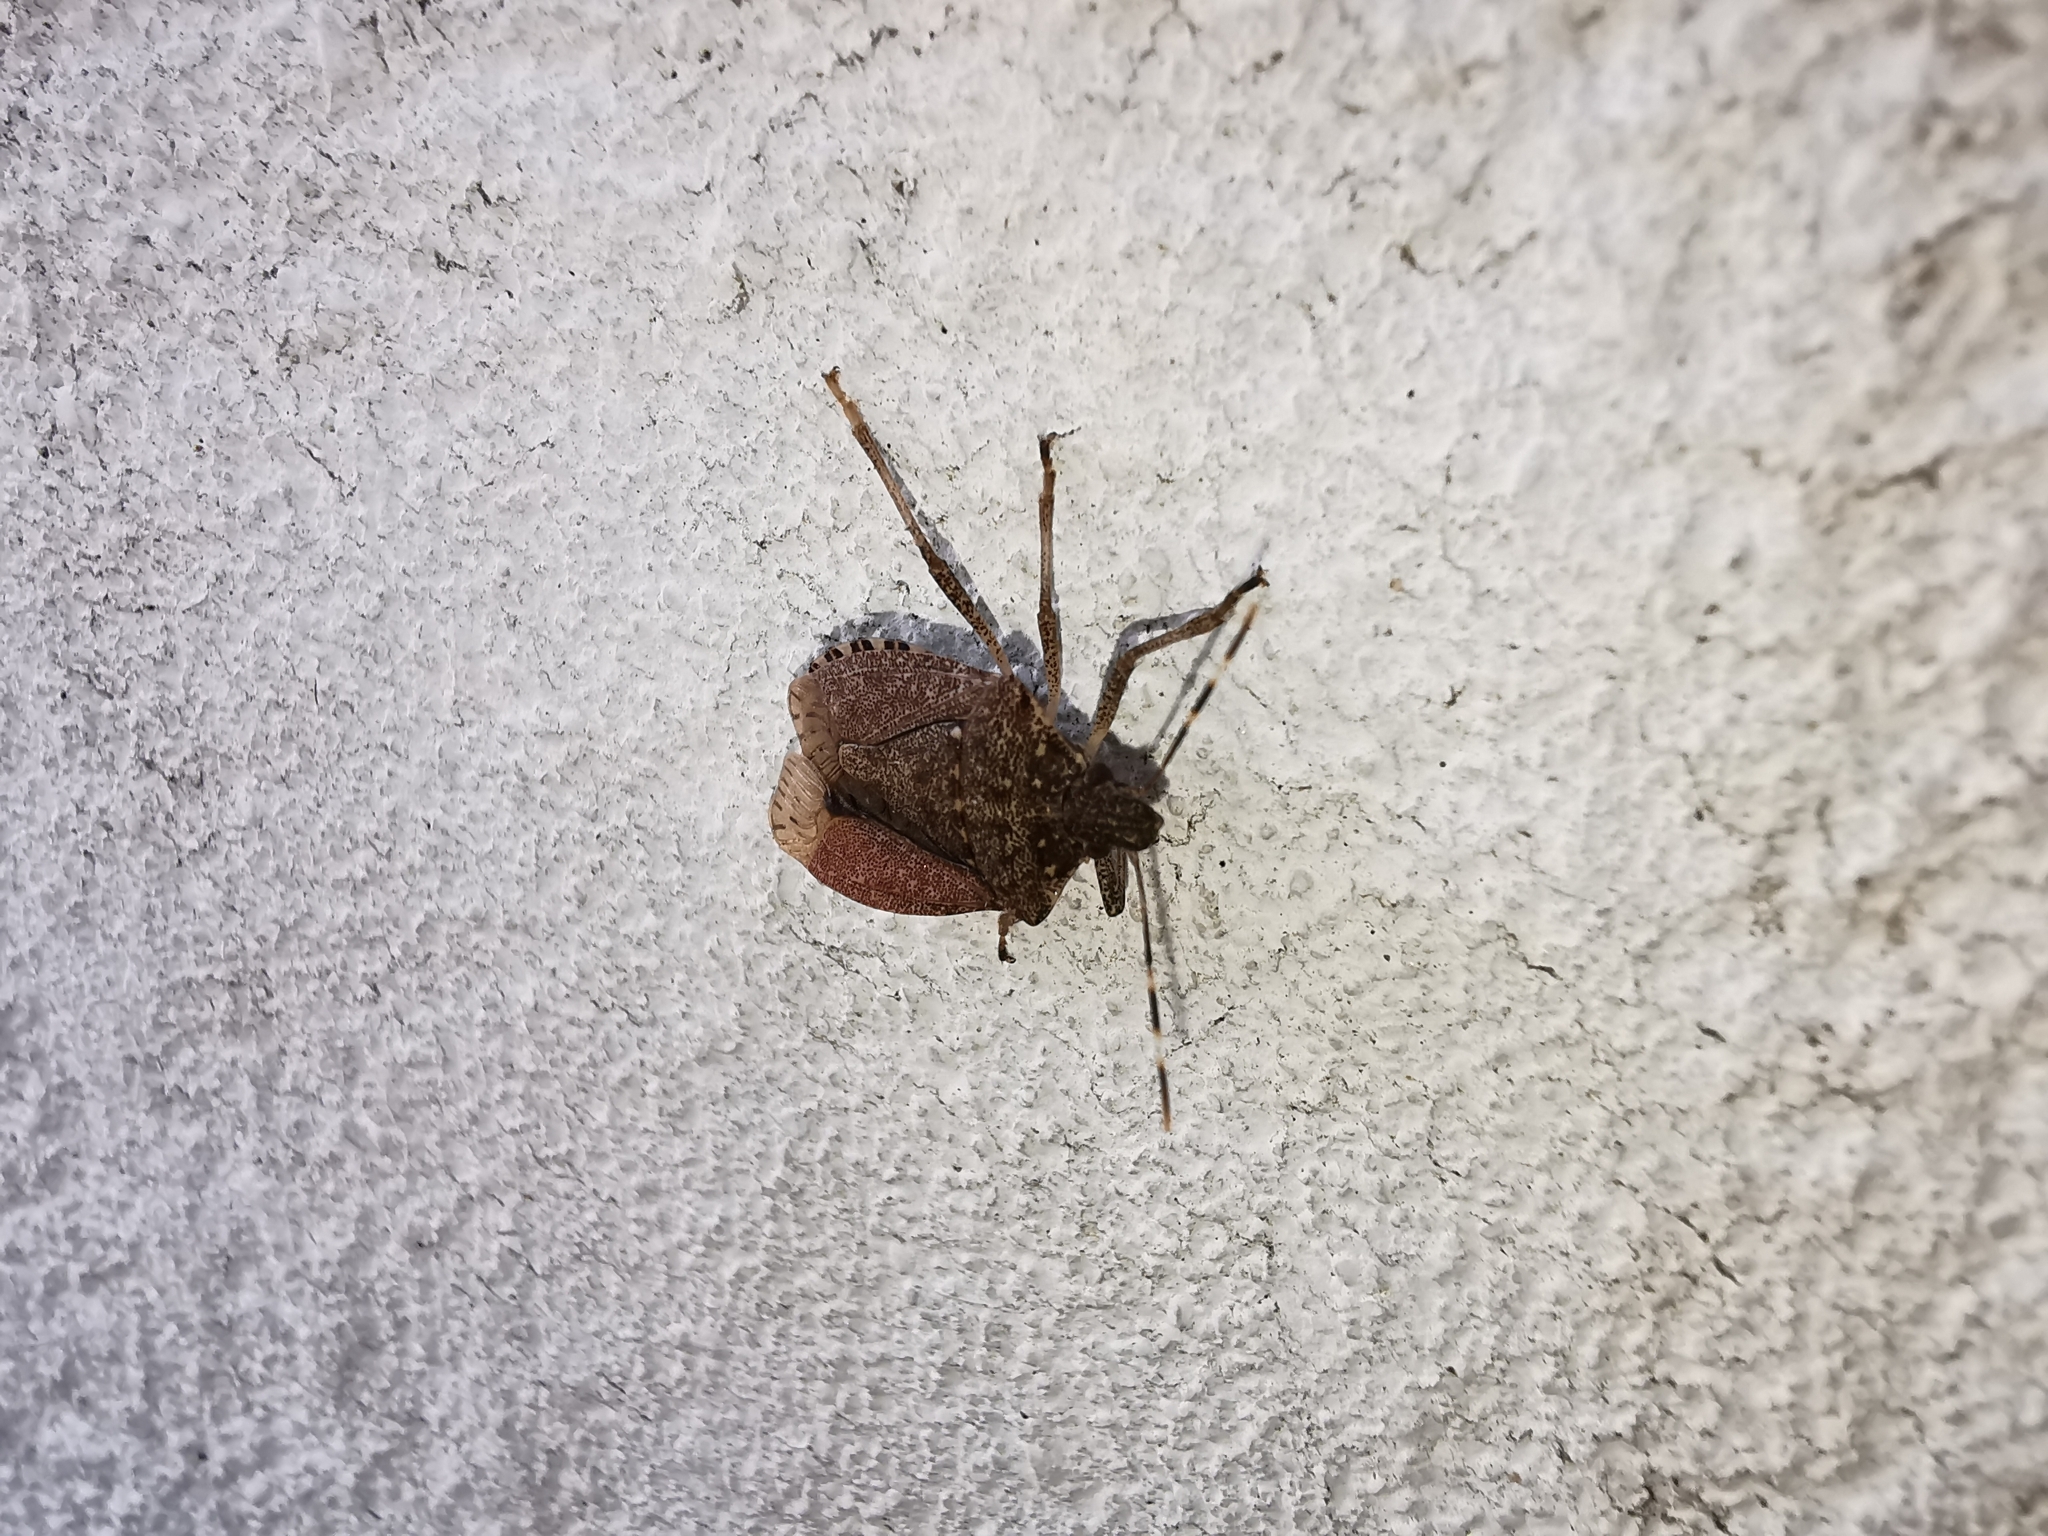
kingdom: Animalia
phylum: Arthropoda
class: Insecta
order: Hemiptera
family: Pentatomidae
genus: Halyomorpha
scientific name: Halyomorpha halys
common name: Brown marmorated stink bug
